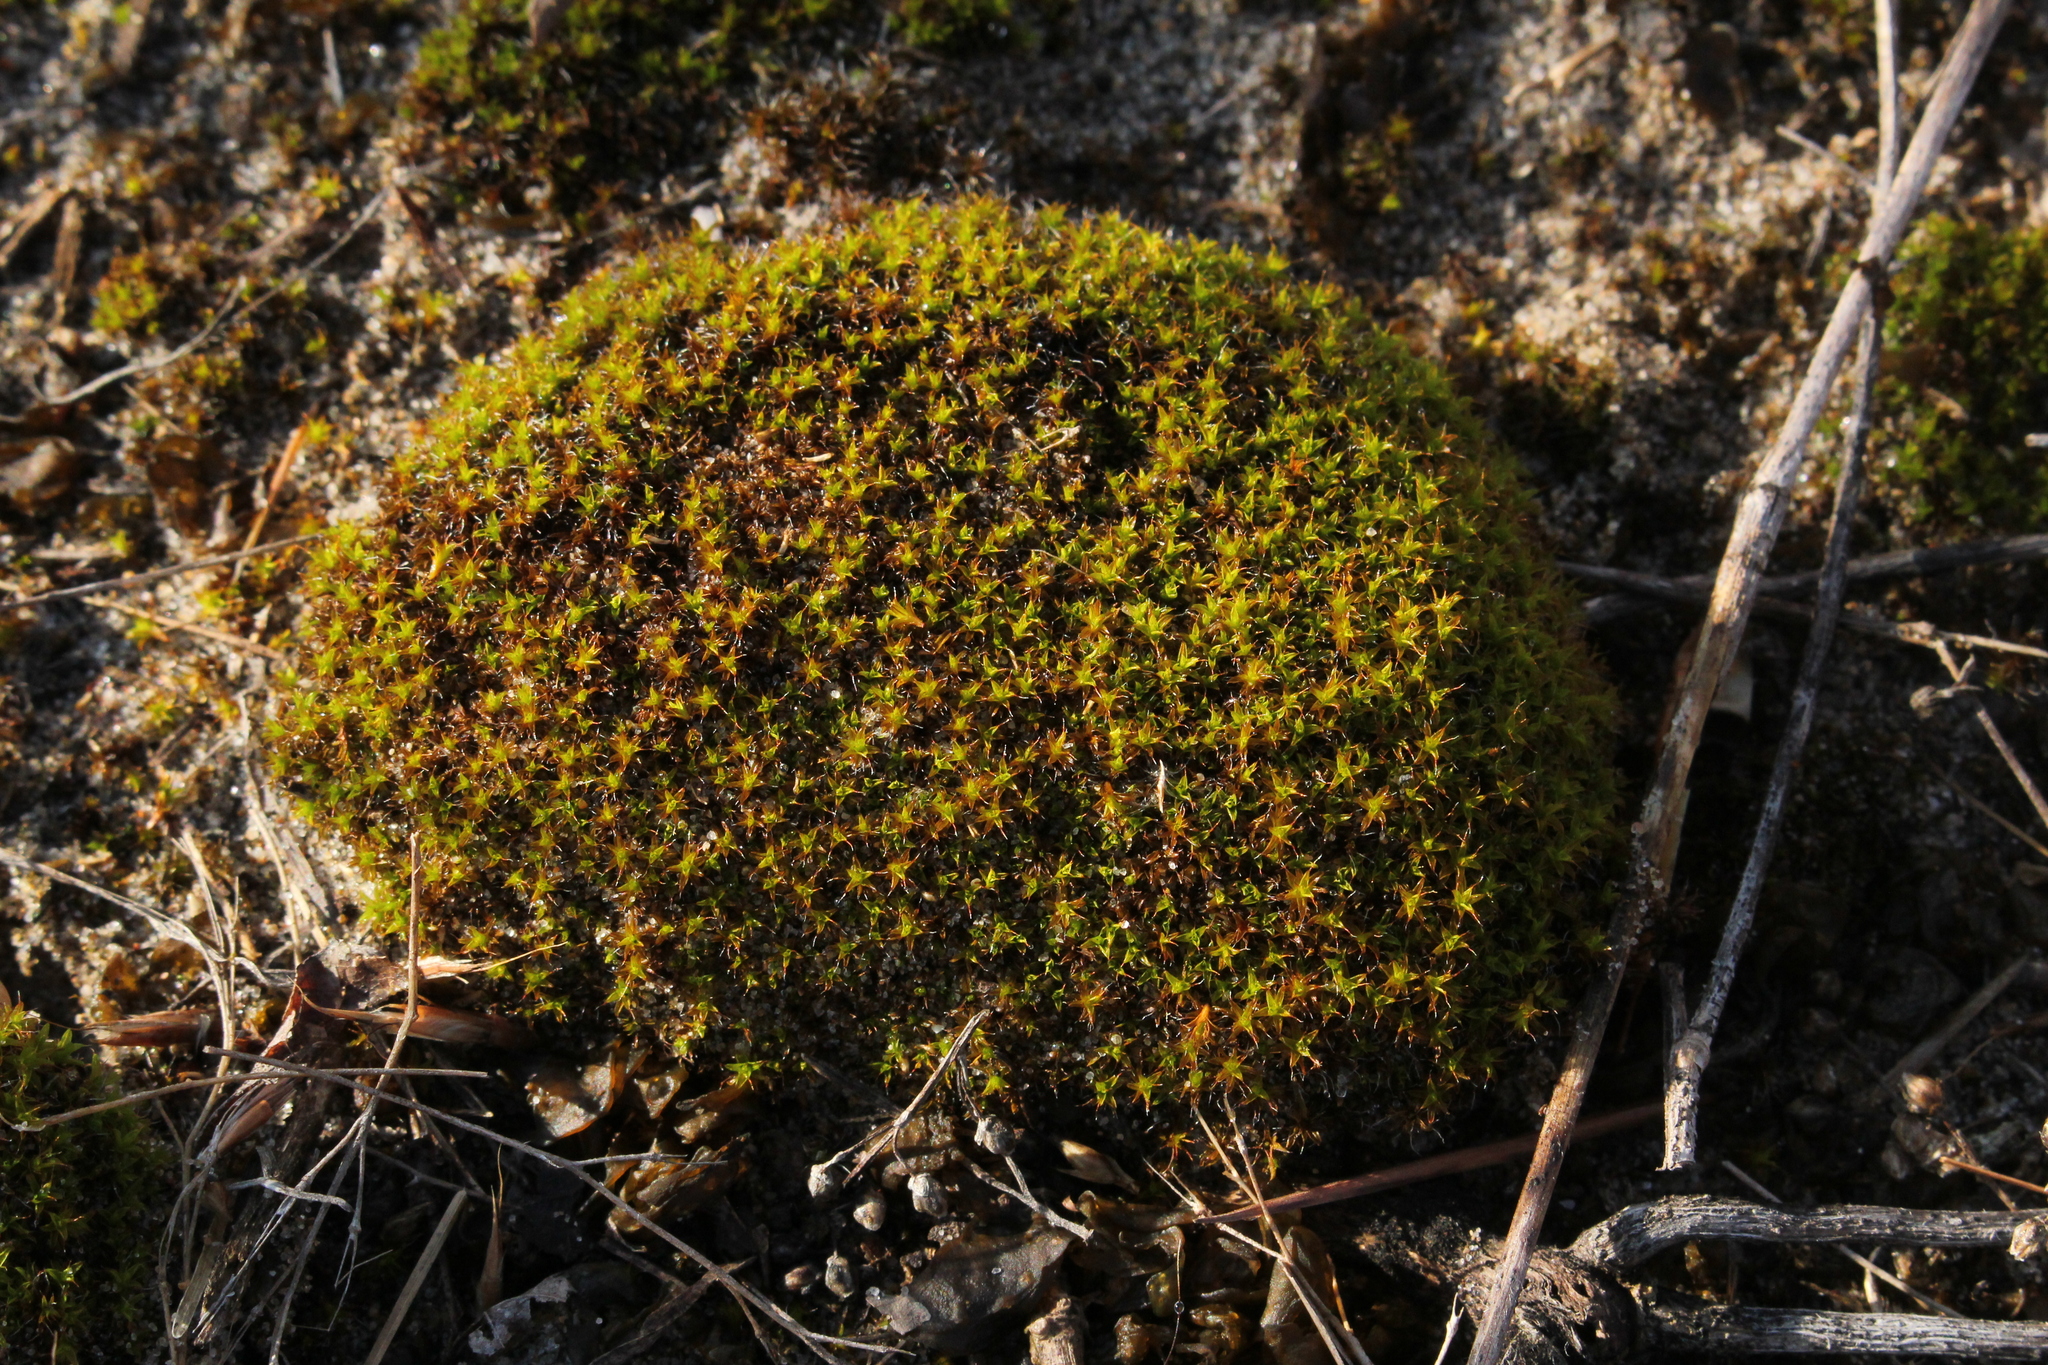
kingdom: Plantae
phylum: Bryophyta
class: Bryopsida
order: Pottiales
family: Pottiaceae
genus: Syntrichia
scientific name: Syntrichia ruralis
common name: Sidewalk screw moss
